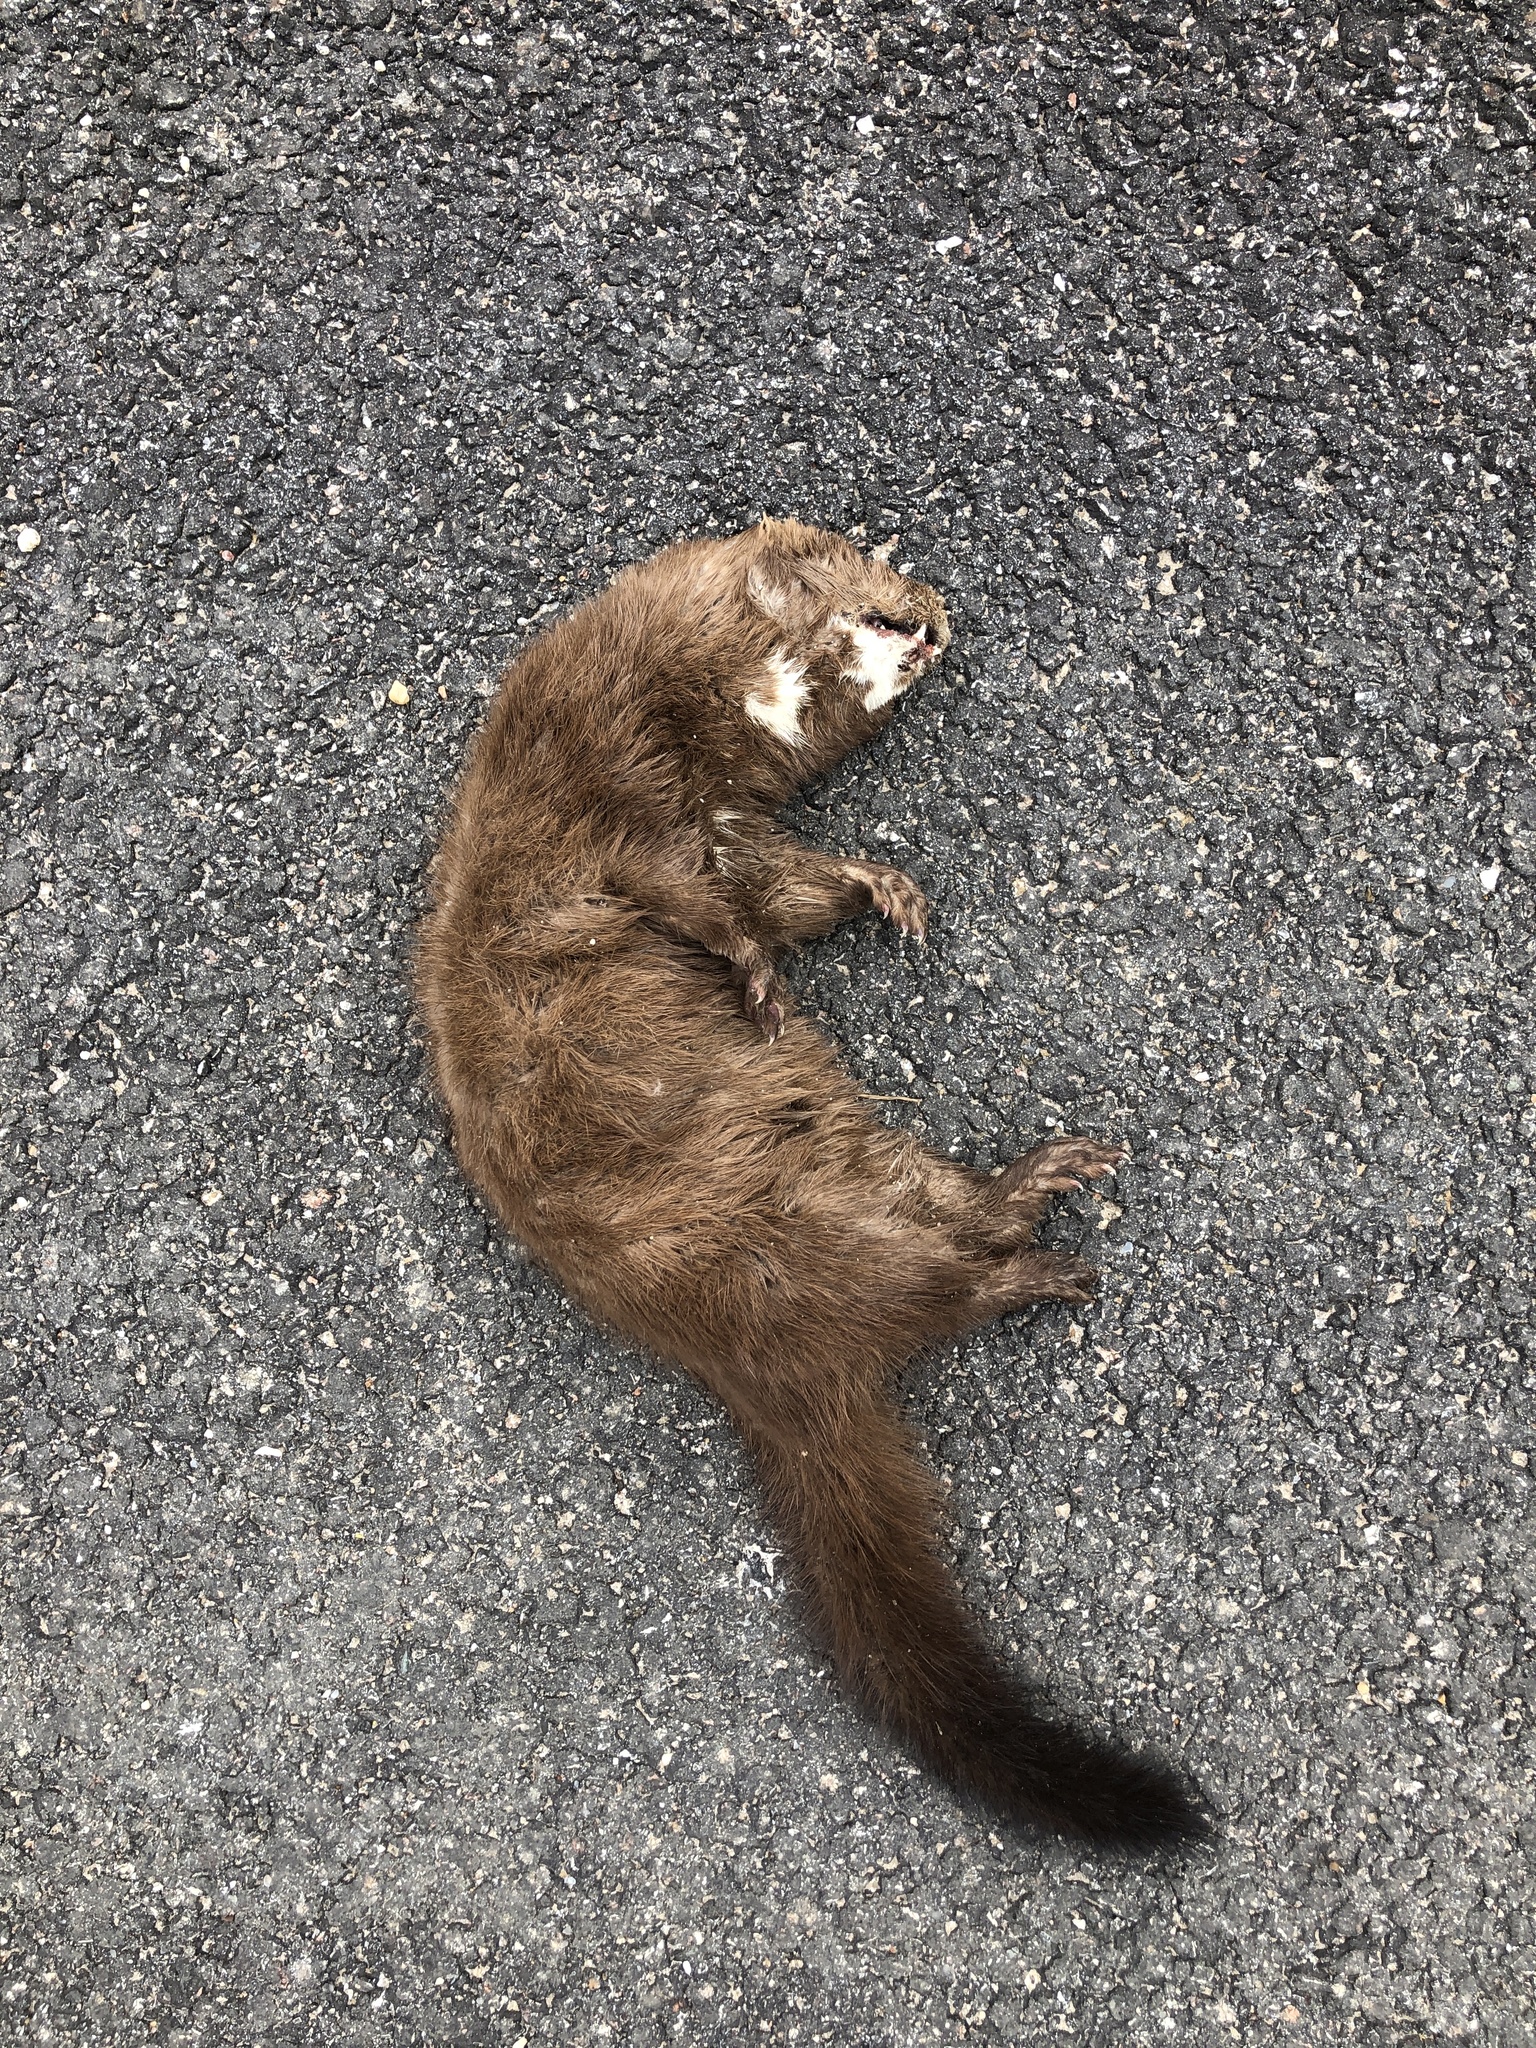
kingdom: Animalia
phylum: Chordata
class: Mammalia
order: Carnivora
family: Mustelidae
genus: Mustela
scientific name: Mustela
